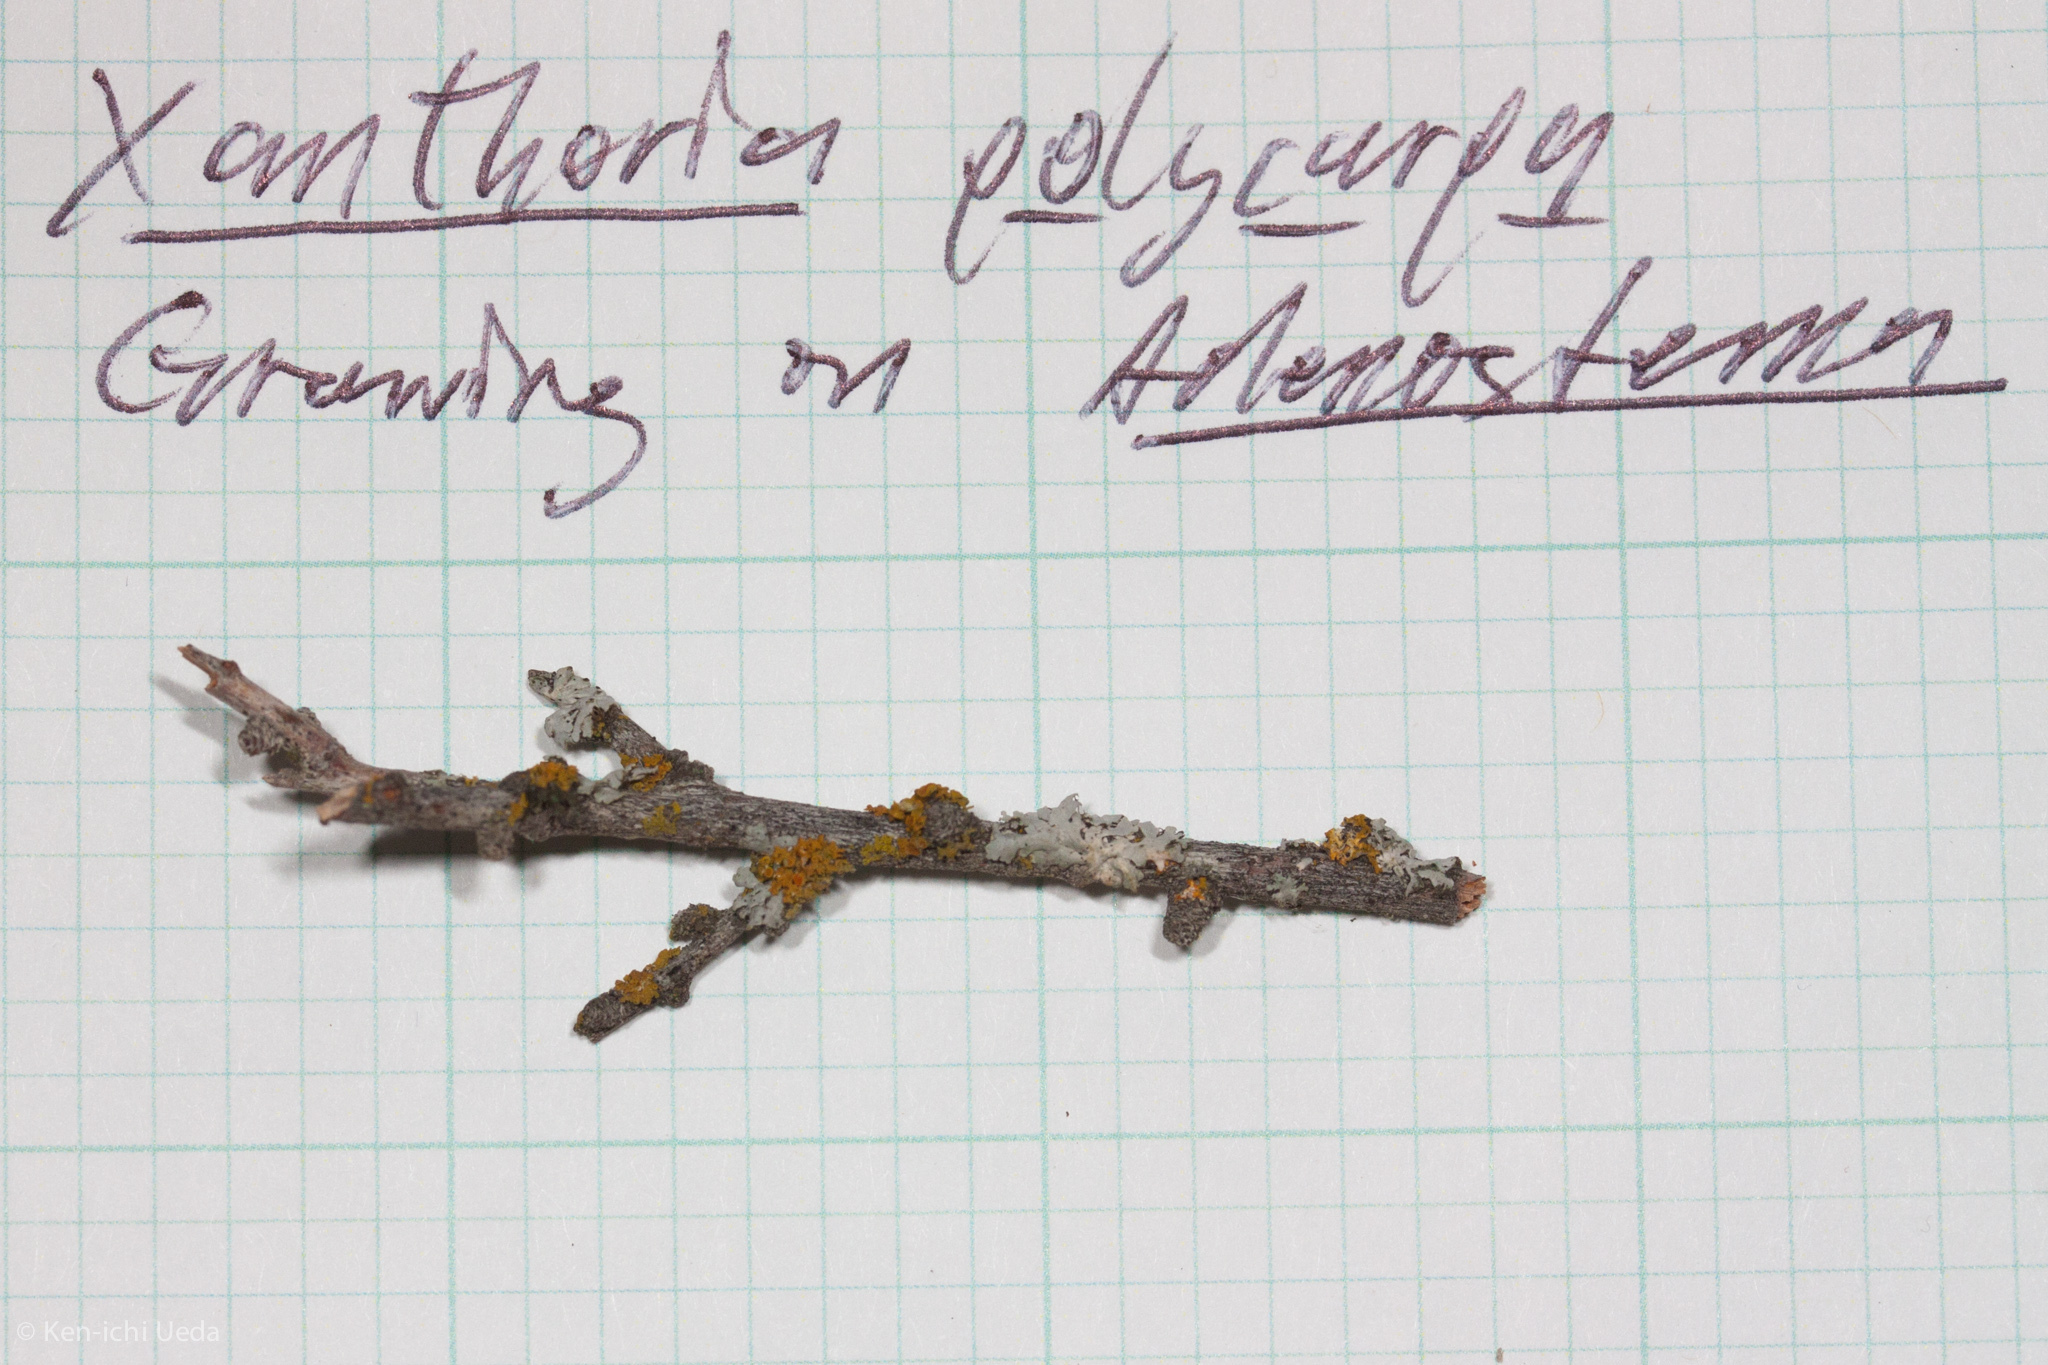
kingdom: Fungi
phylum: Ascomycota
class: Lecanoromycetes
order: Teloschistales
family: Teloschistaceae
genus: Polycauliona
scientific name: Polycauliona polycarpa
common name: Pin-cushion sunburst lichen
